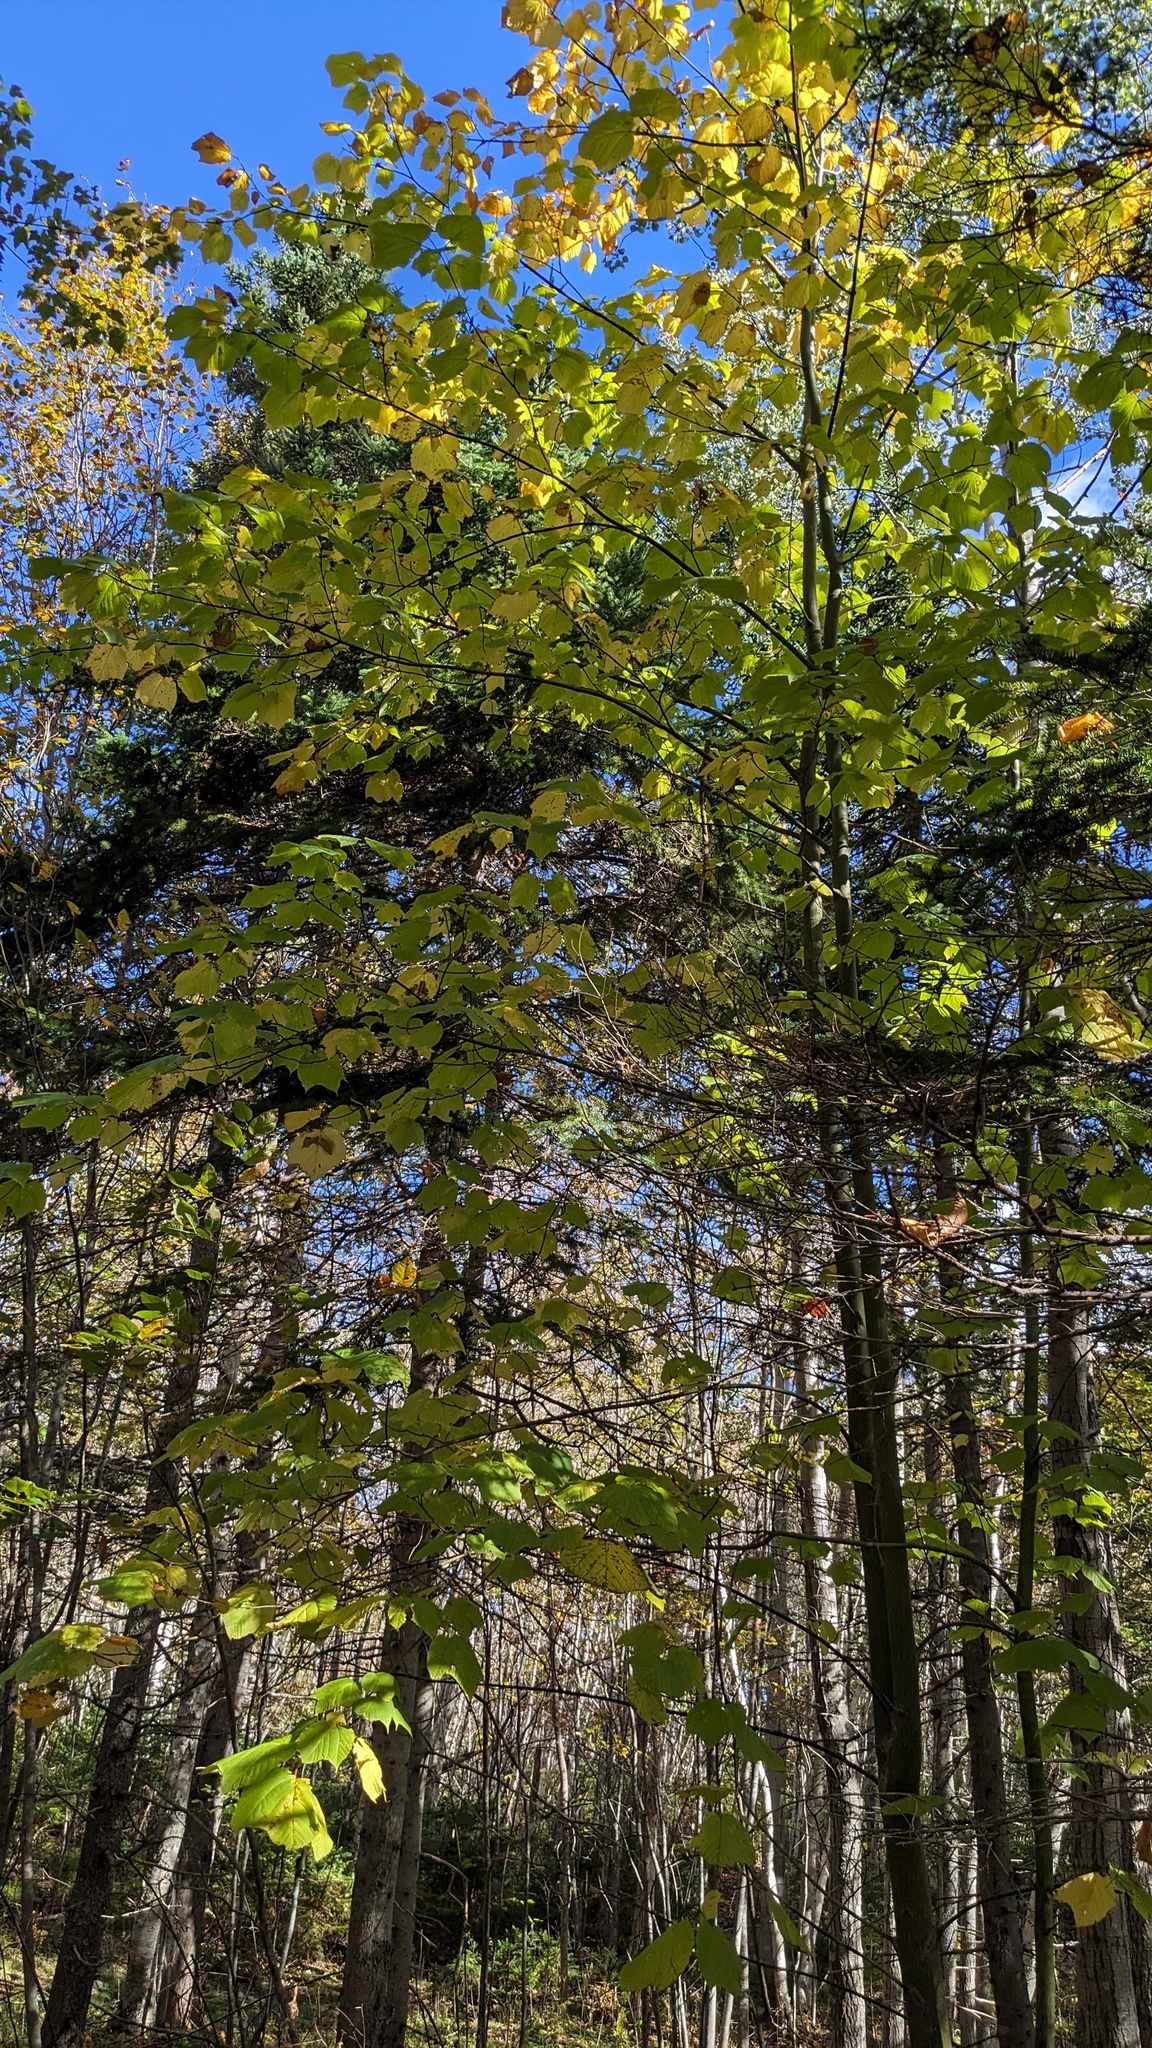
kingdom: Plantae
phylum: Tracheophyta
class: Magnoliopsida
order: Sapindales
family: Sapindaceae
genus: Acer
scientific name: Acer pensylvanicum
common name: Moosewood
